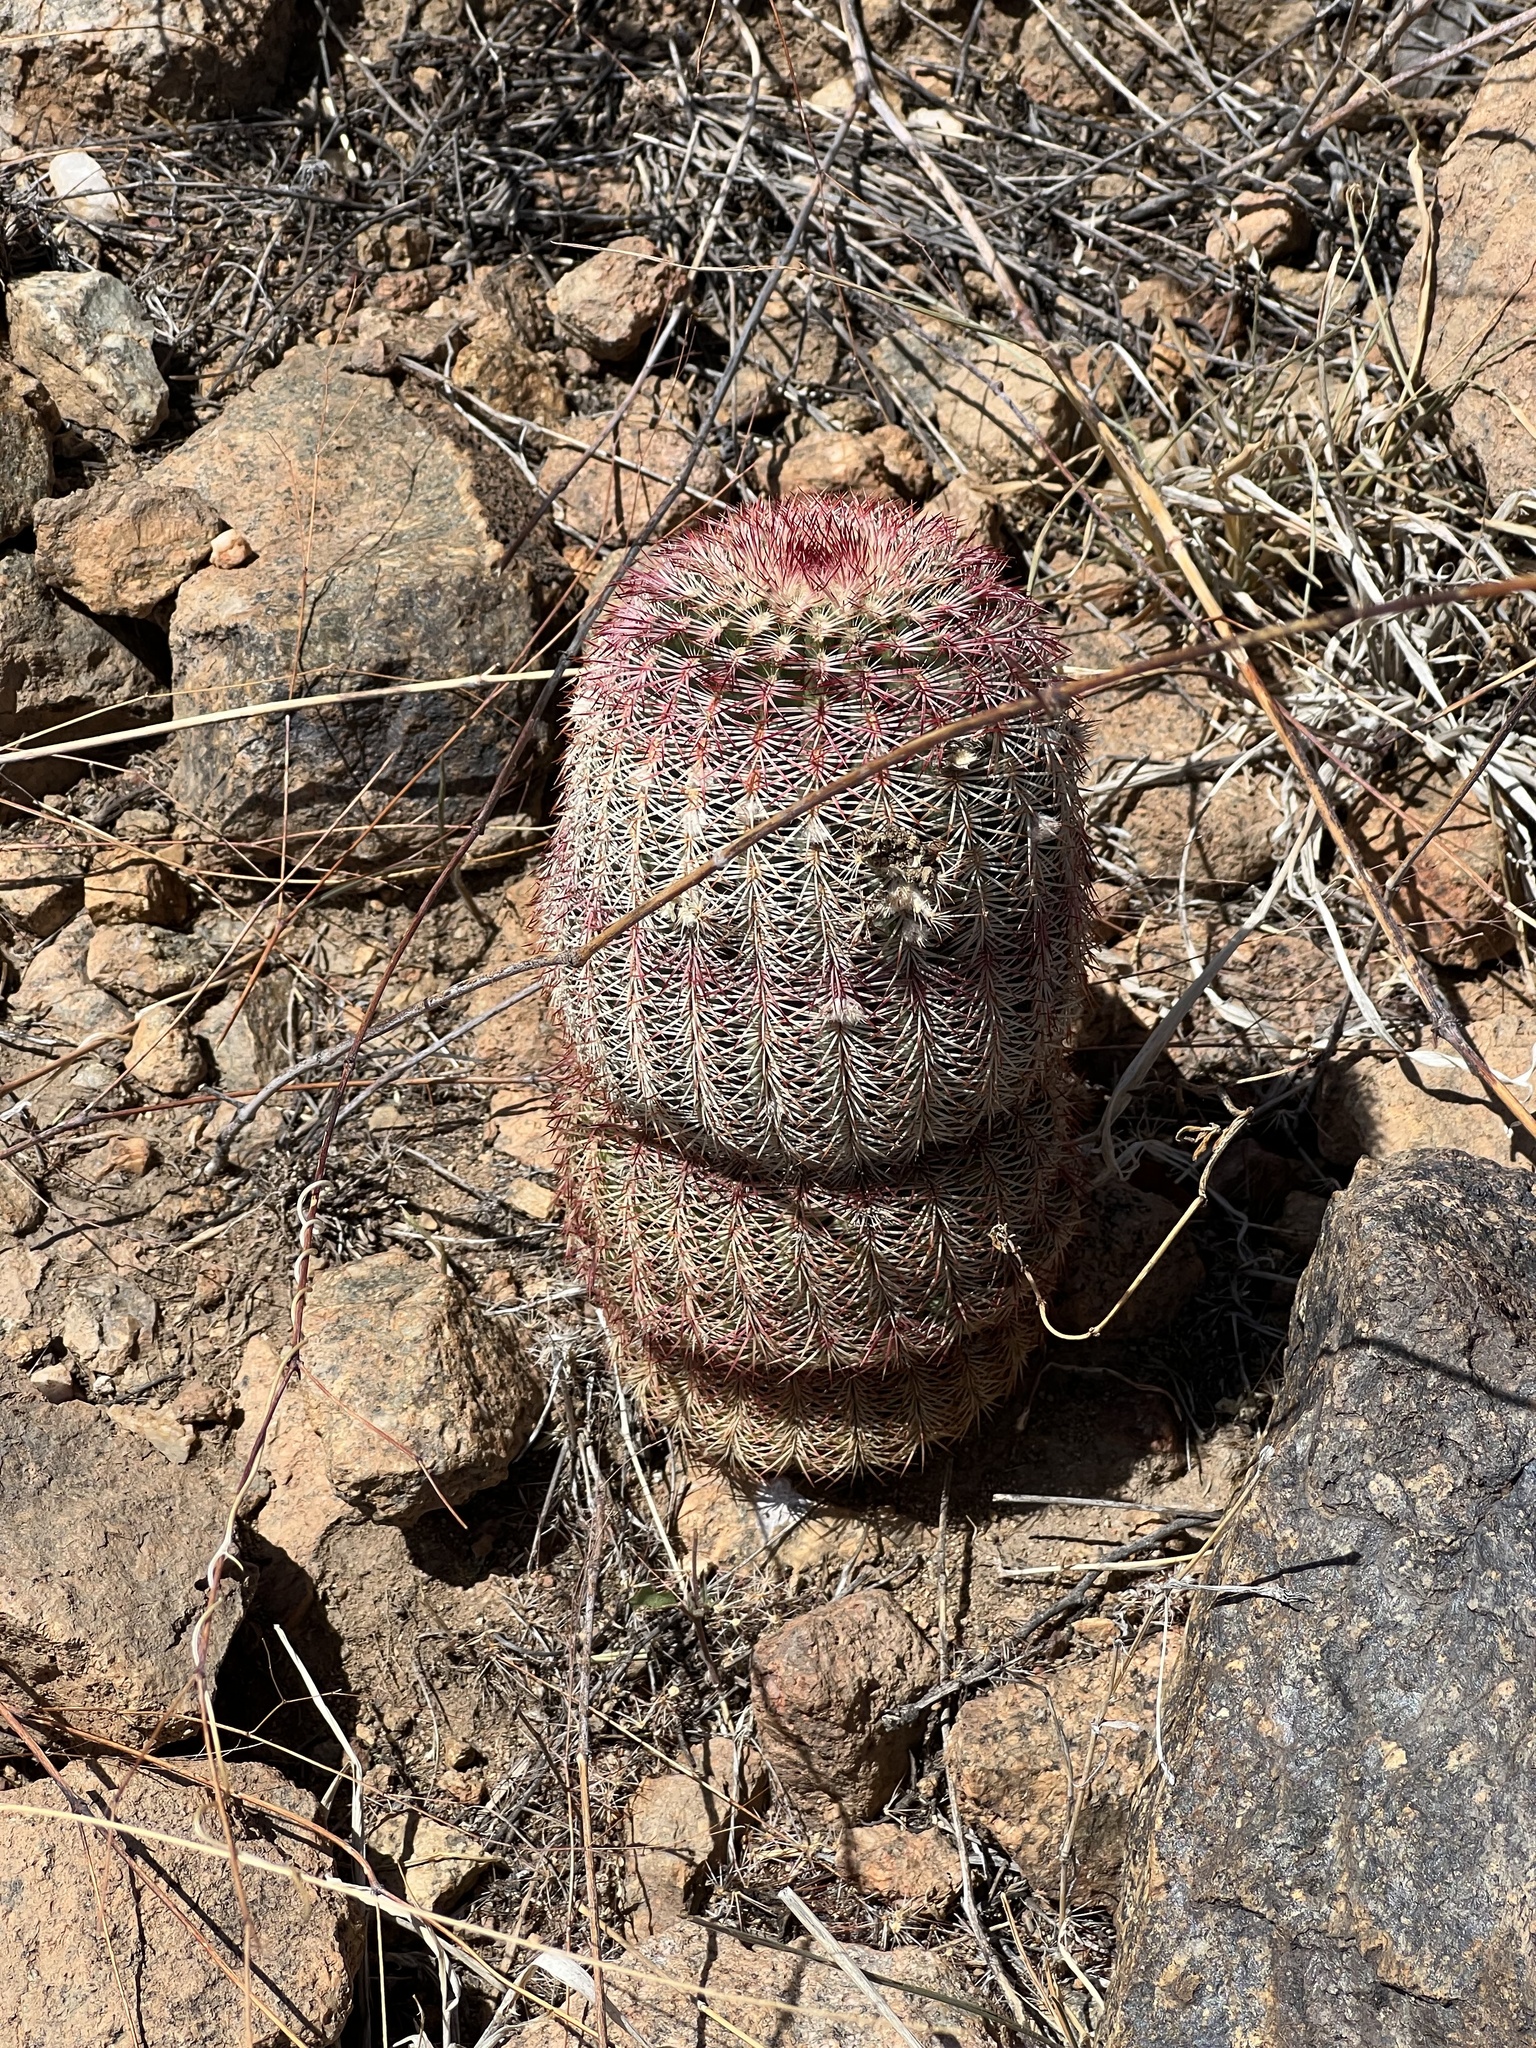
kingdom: Plantae
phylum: Tracheophyta
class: Magnoliopsida
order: Caryophyllales
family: Cactaceae
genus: Echinocereus
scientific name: Echinocereus rigidissimus
